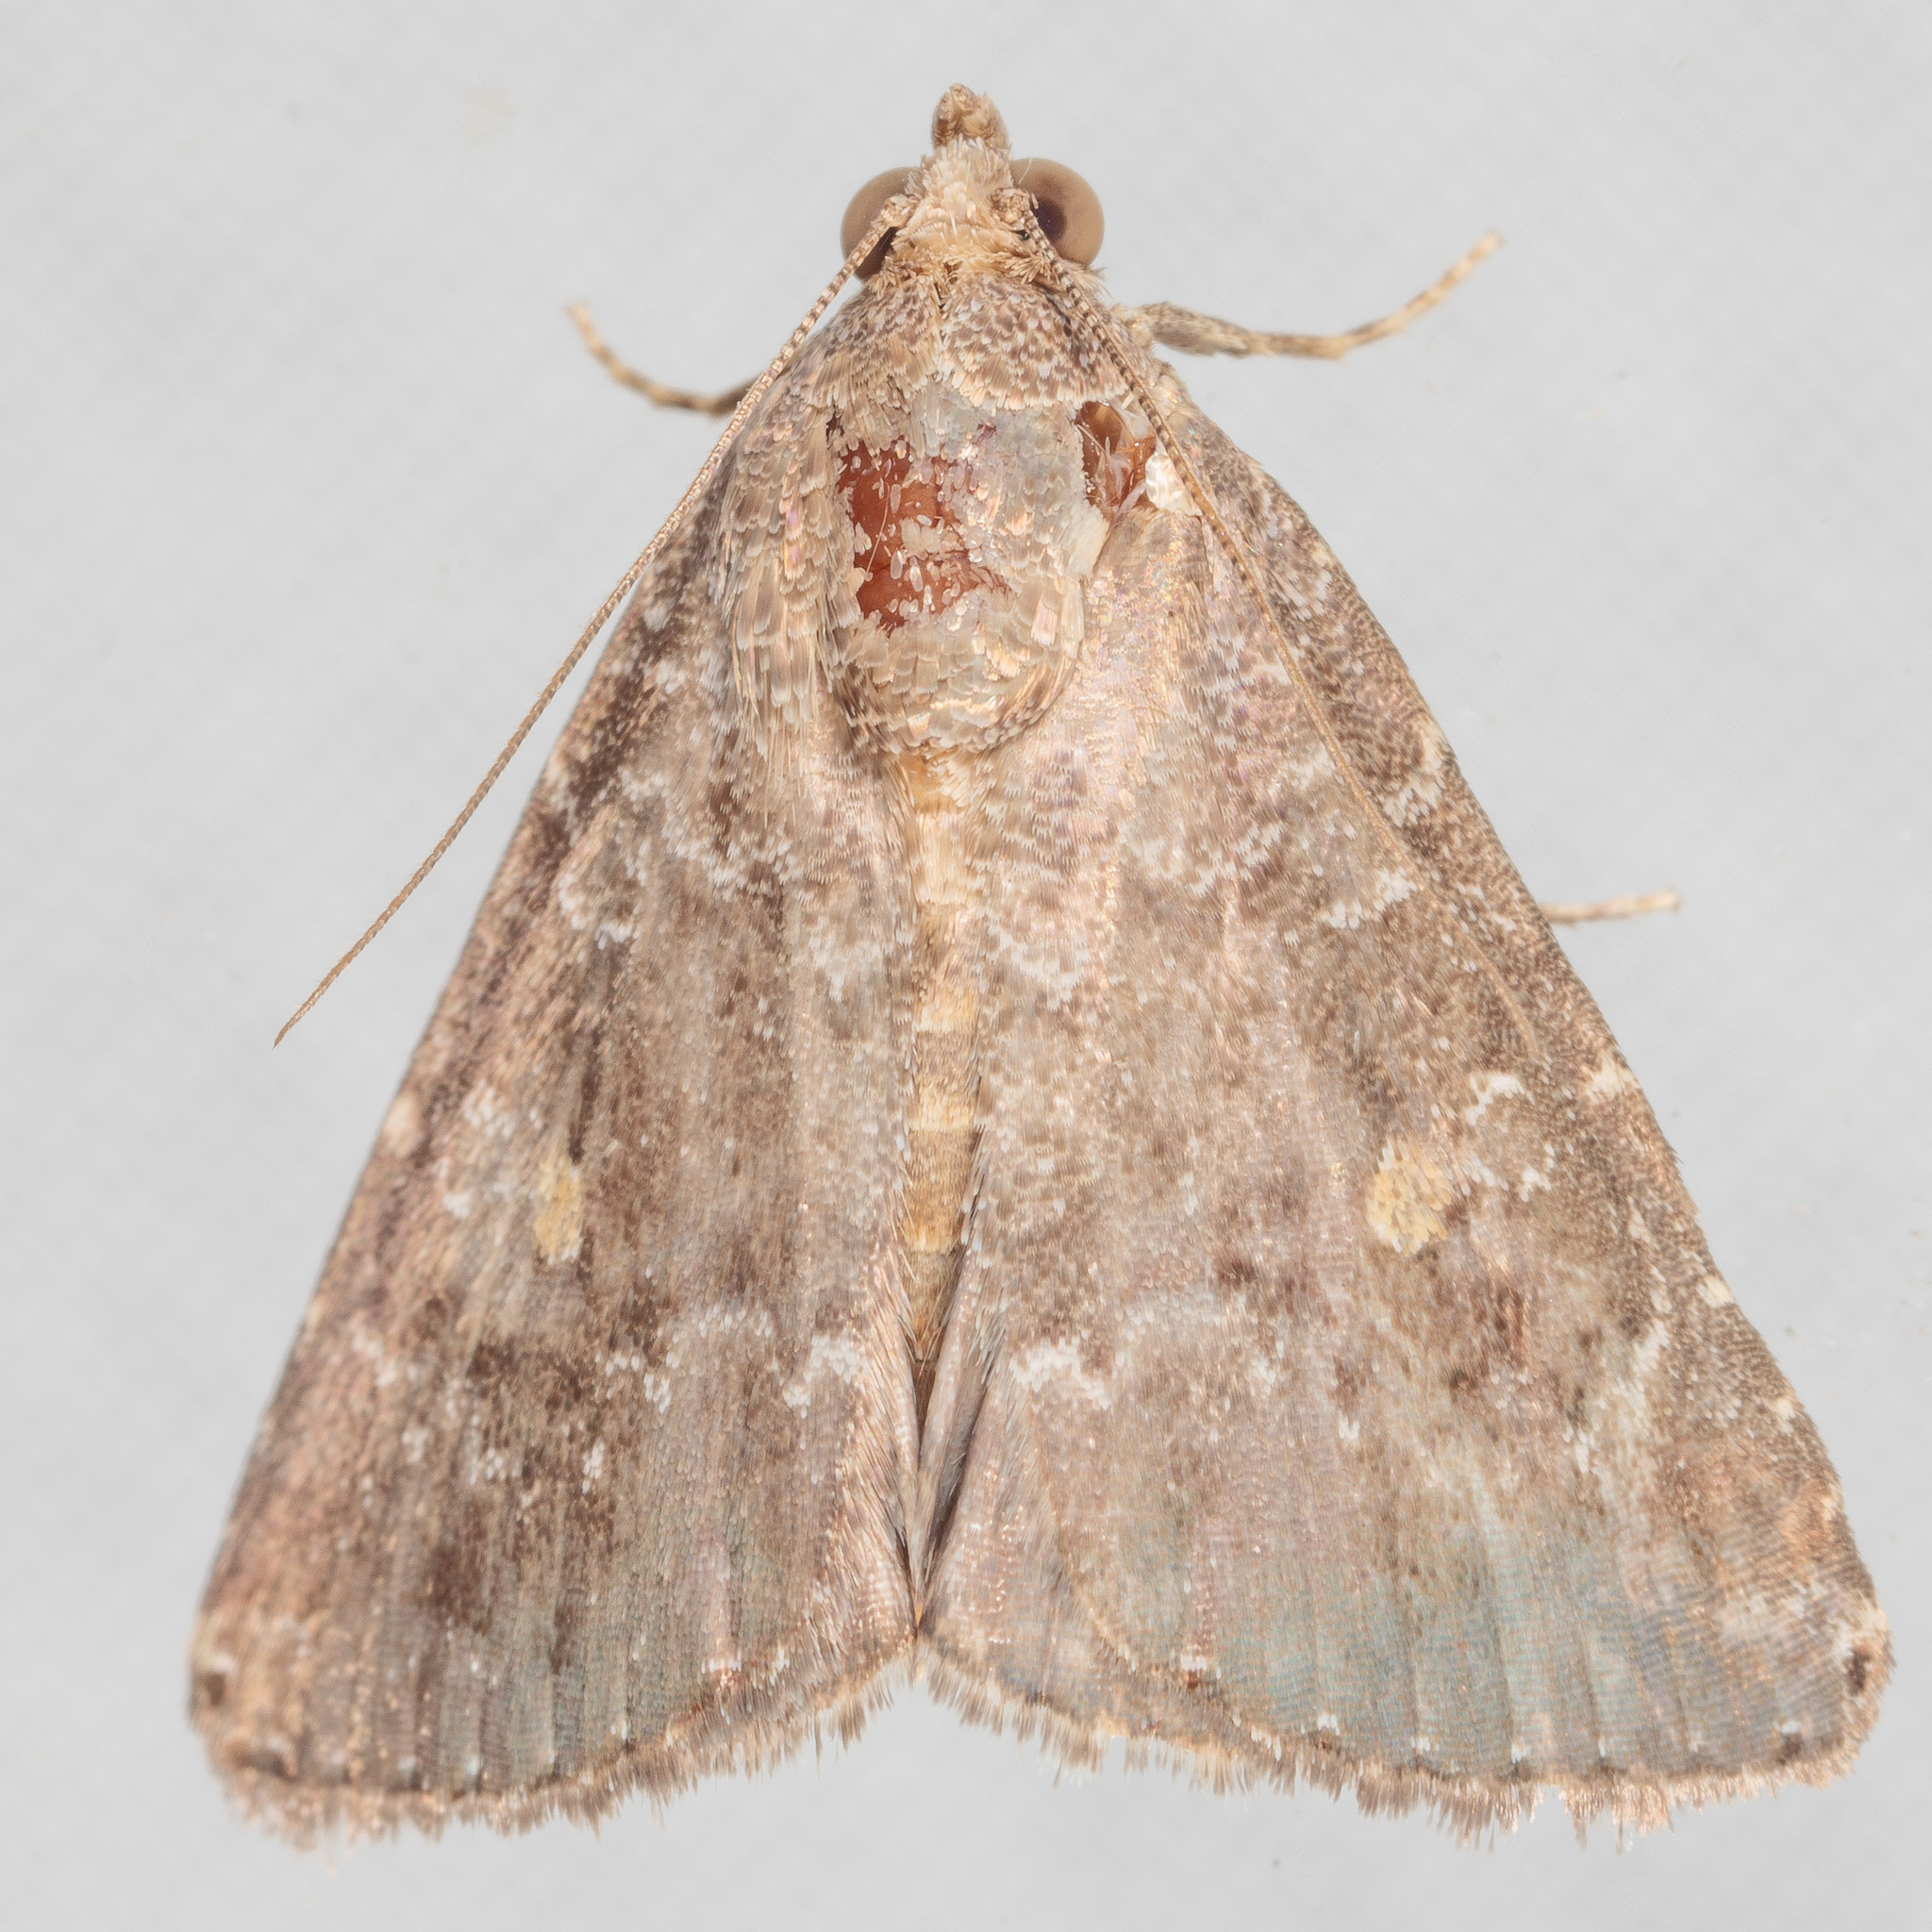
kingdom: Animalia
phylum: Arthropoda
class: Insecta
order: Lepidoptera
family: Noctuidae
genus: Amyna
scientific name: Amyna stricta
